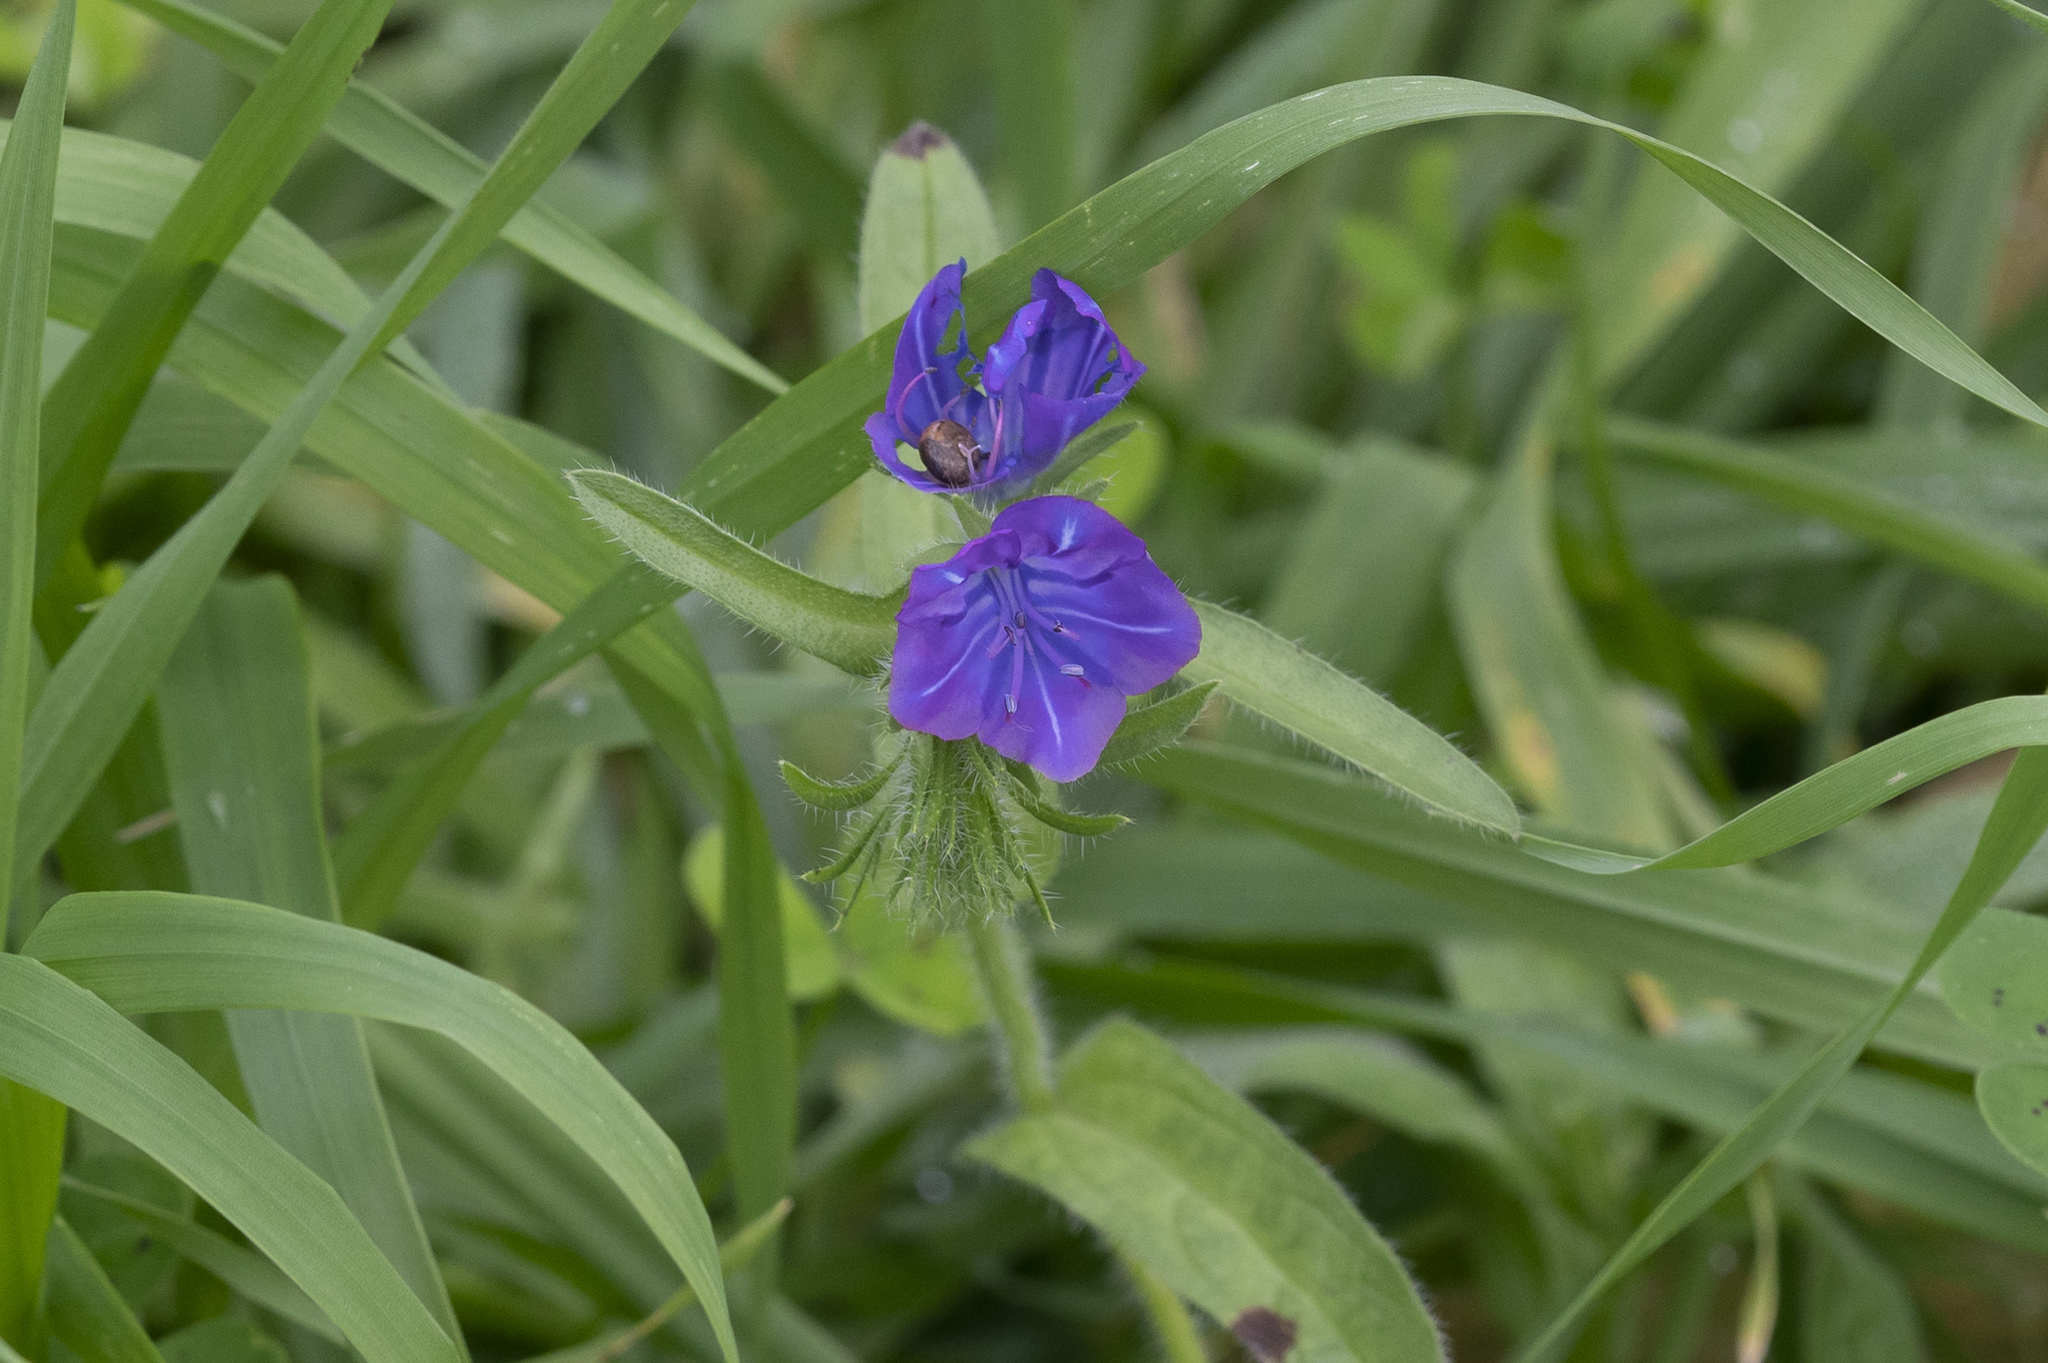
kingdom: Plantae
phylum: Tracheophyta
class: Magnoliopsida
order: Boraginales
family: Boraginaceae
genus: Echium
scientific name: Echium plantagineum
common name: Purple viper's-bugloss
